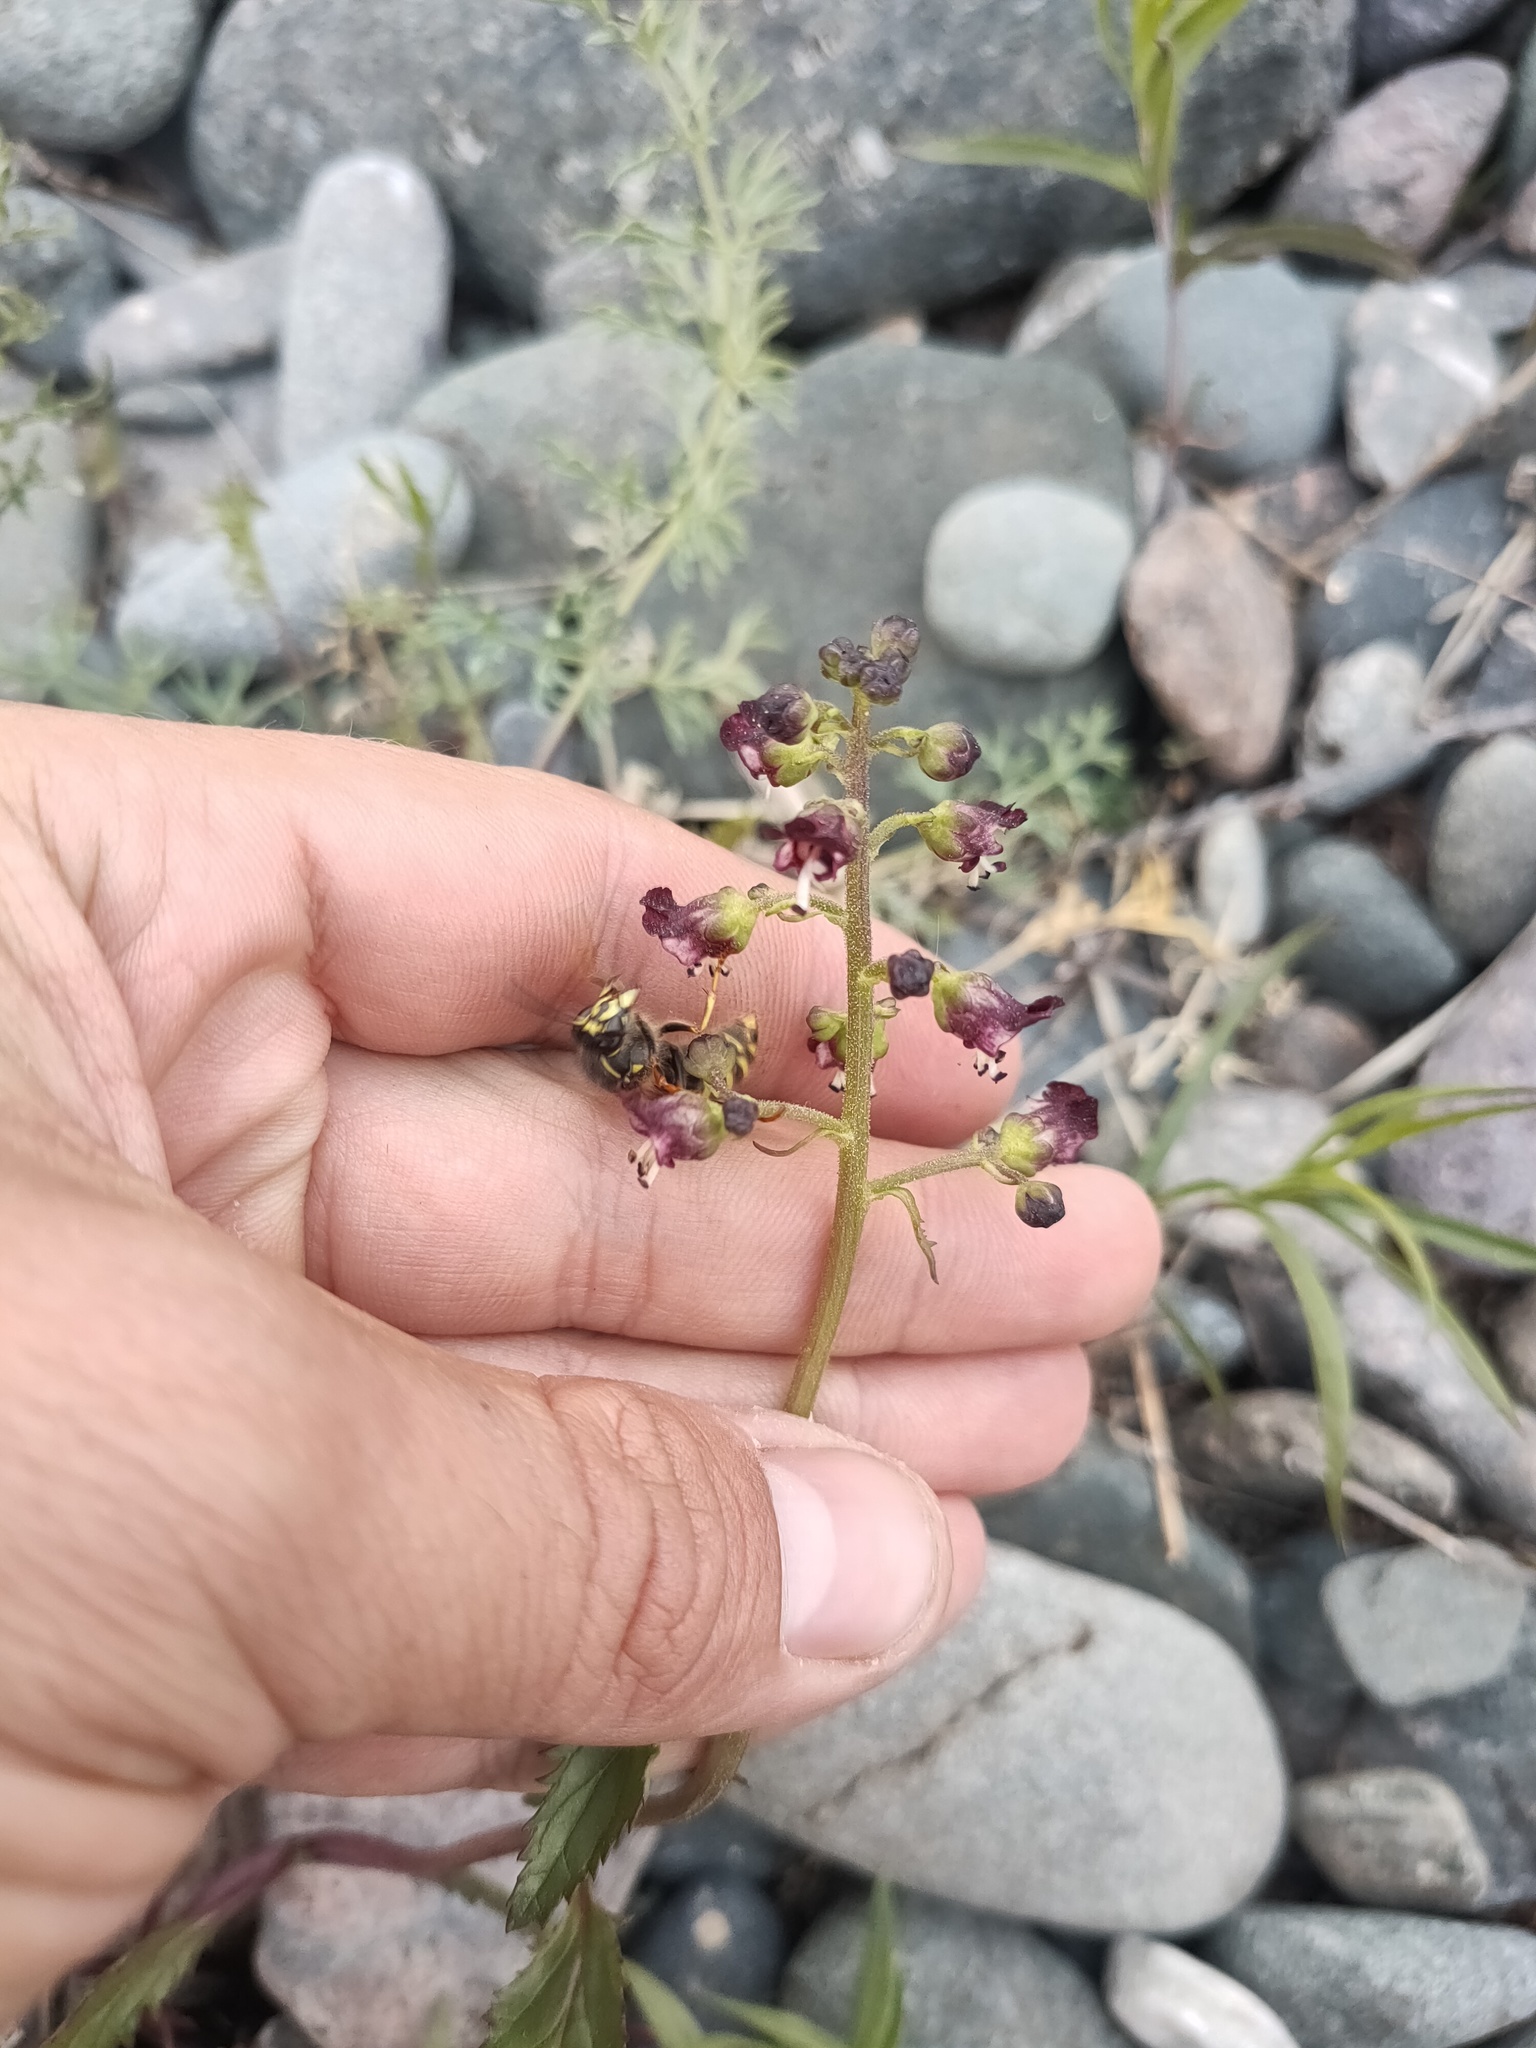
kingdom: Plantae
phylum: Tracheophyta
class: Magnoliopsida
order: Lamiales
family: Scrophulariaceae
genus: Scrophularia
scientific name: Scrophularia incisa
